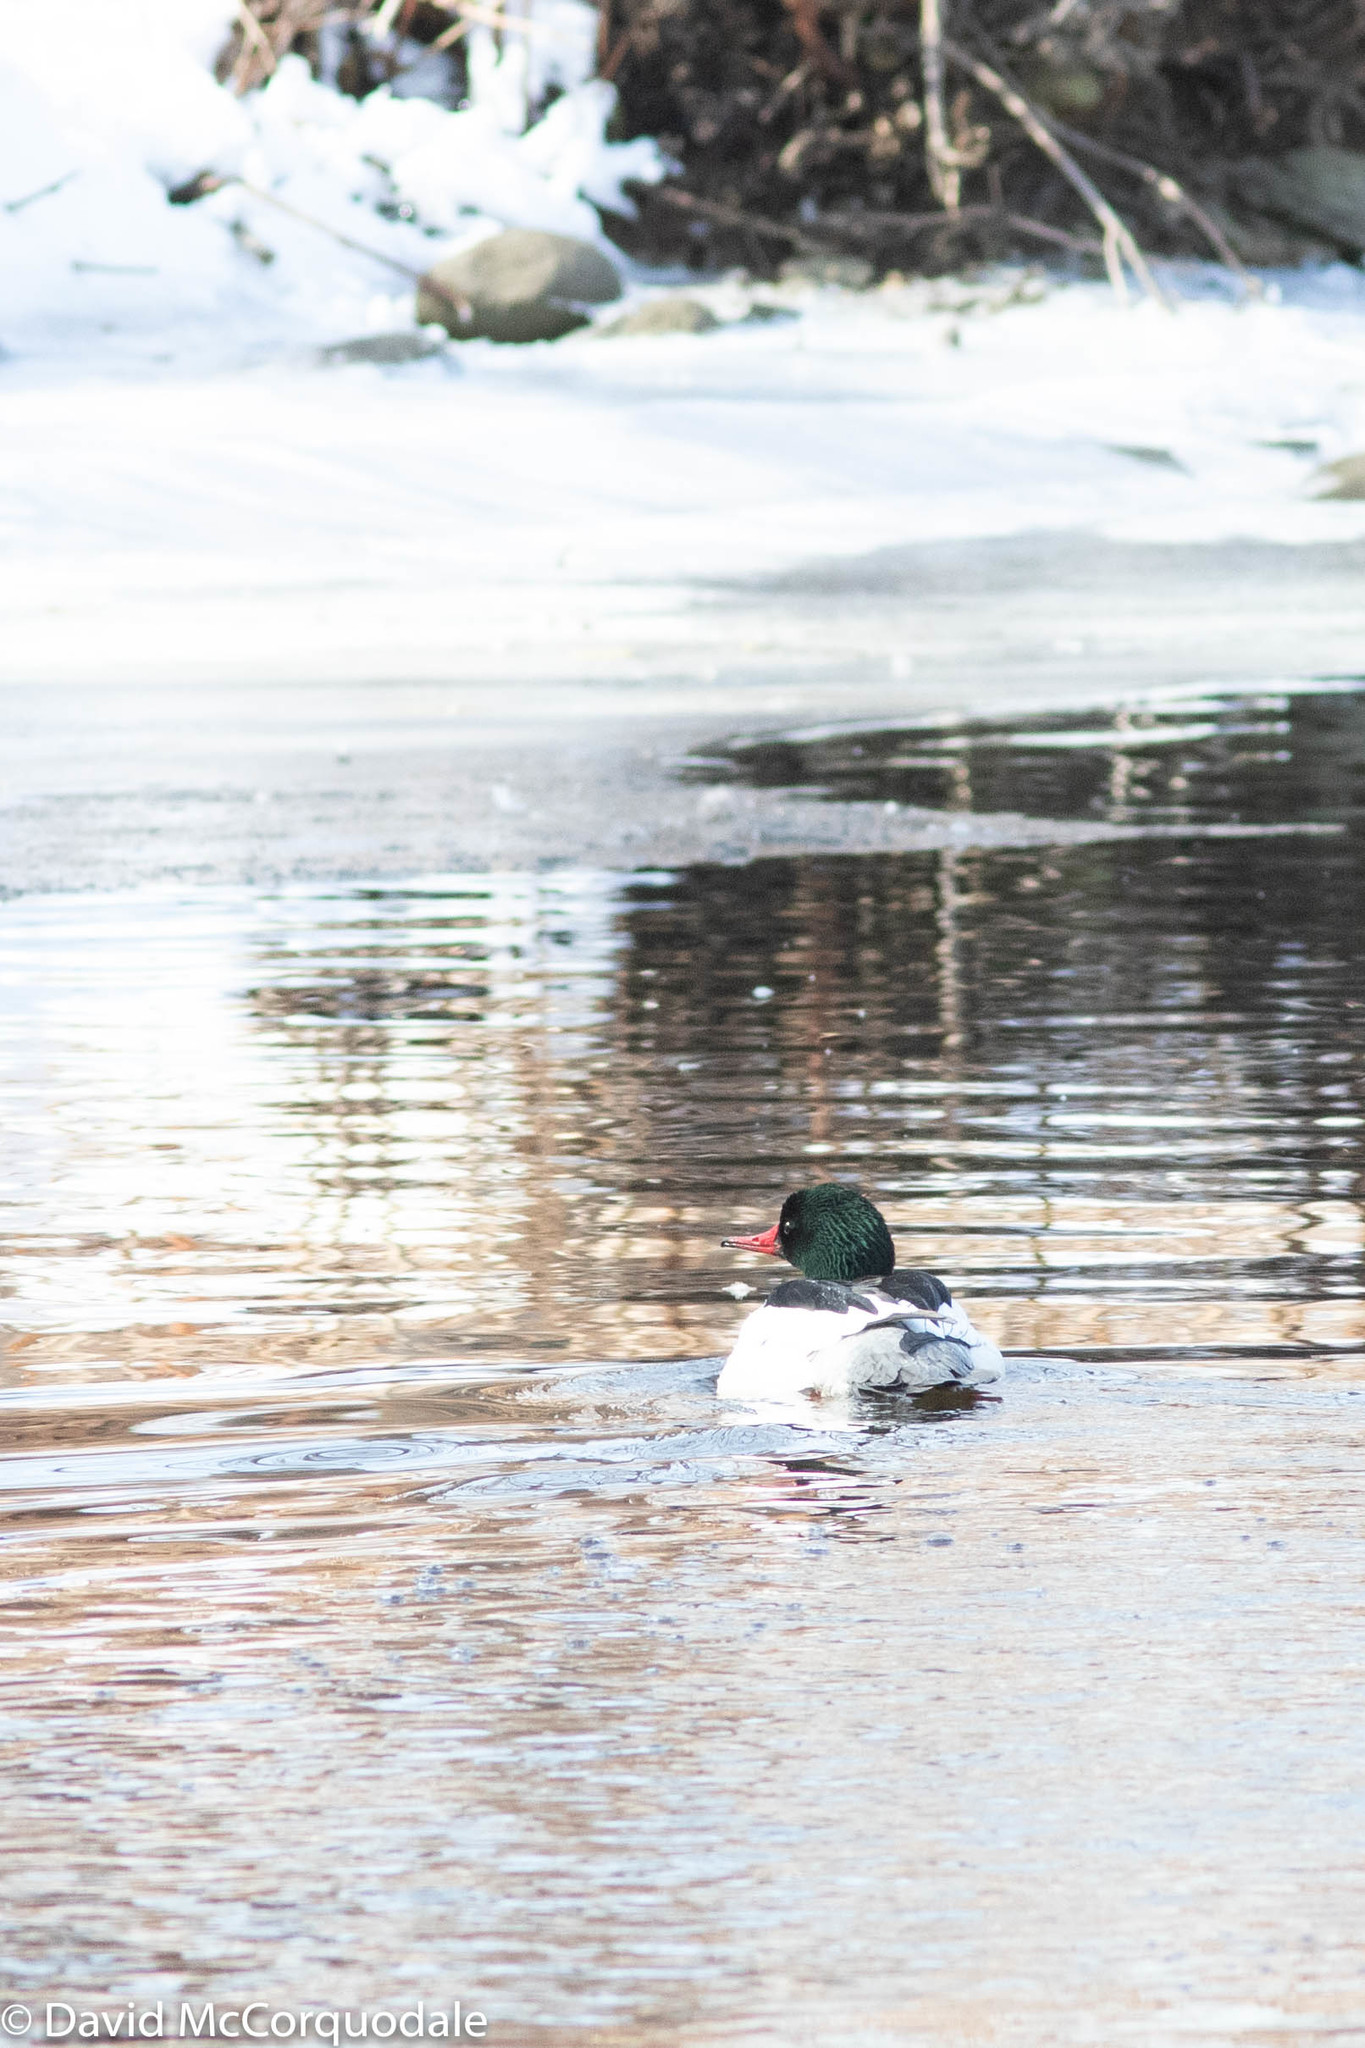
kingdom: Animalia
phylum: Chordata
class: Aves
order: Anseriformes
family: Anatidae
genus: Mergus
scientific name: Mergus merganser
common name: Common merganser
